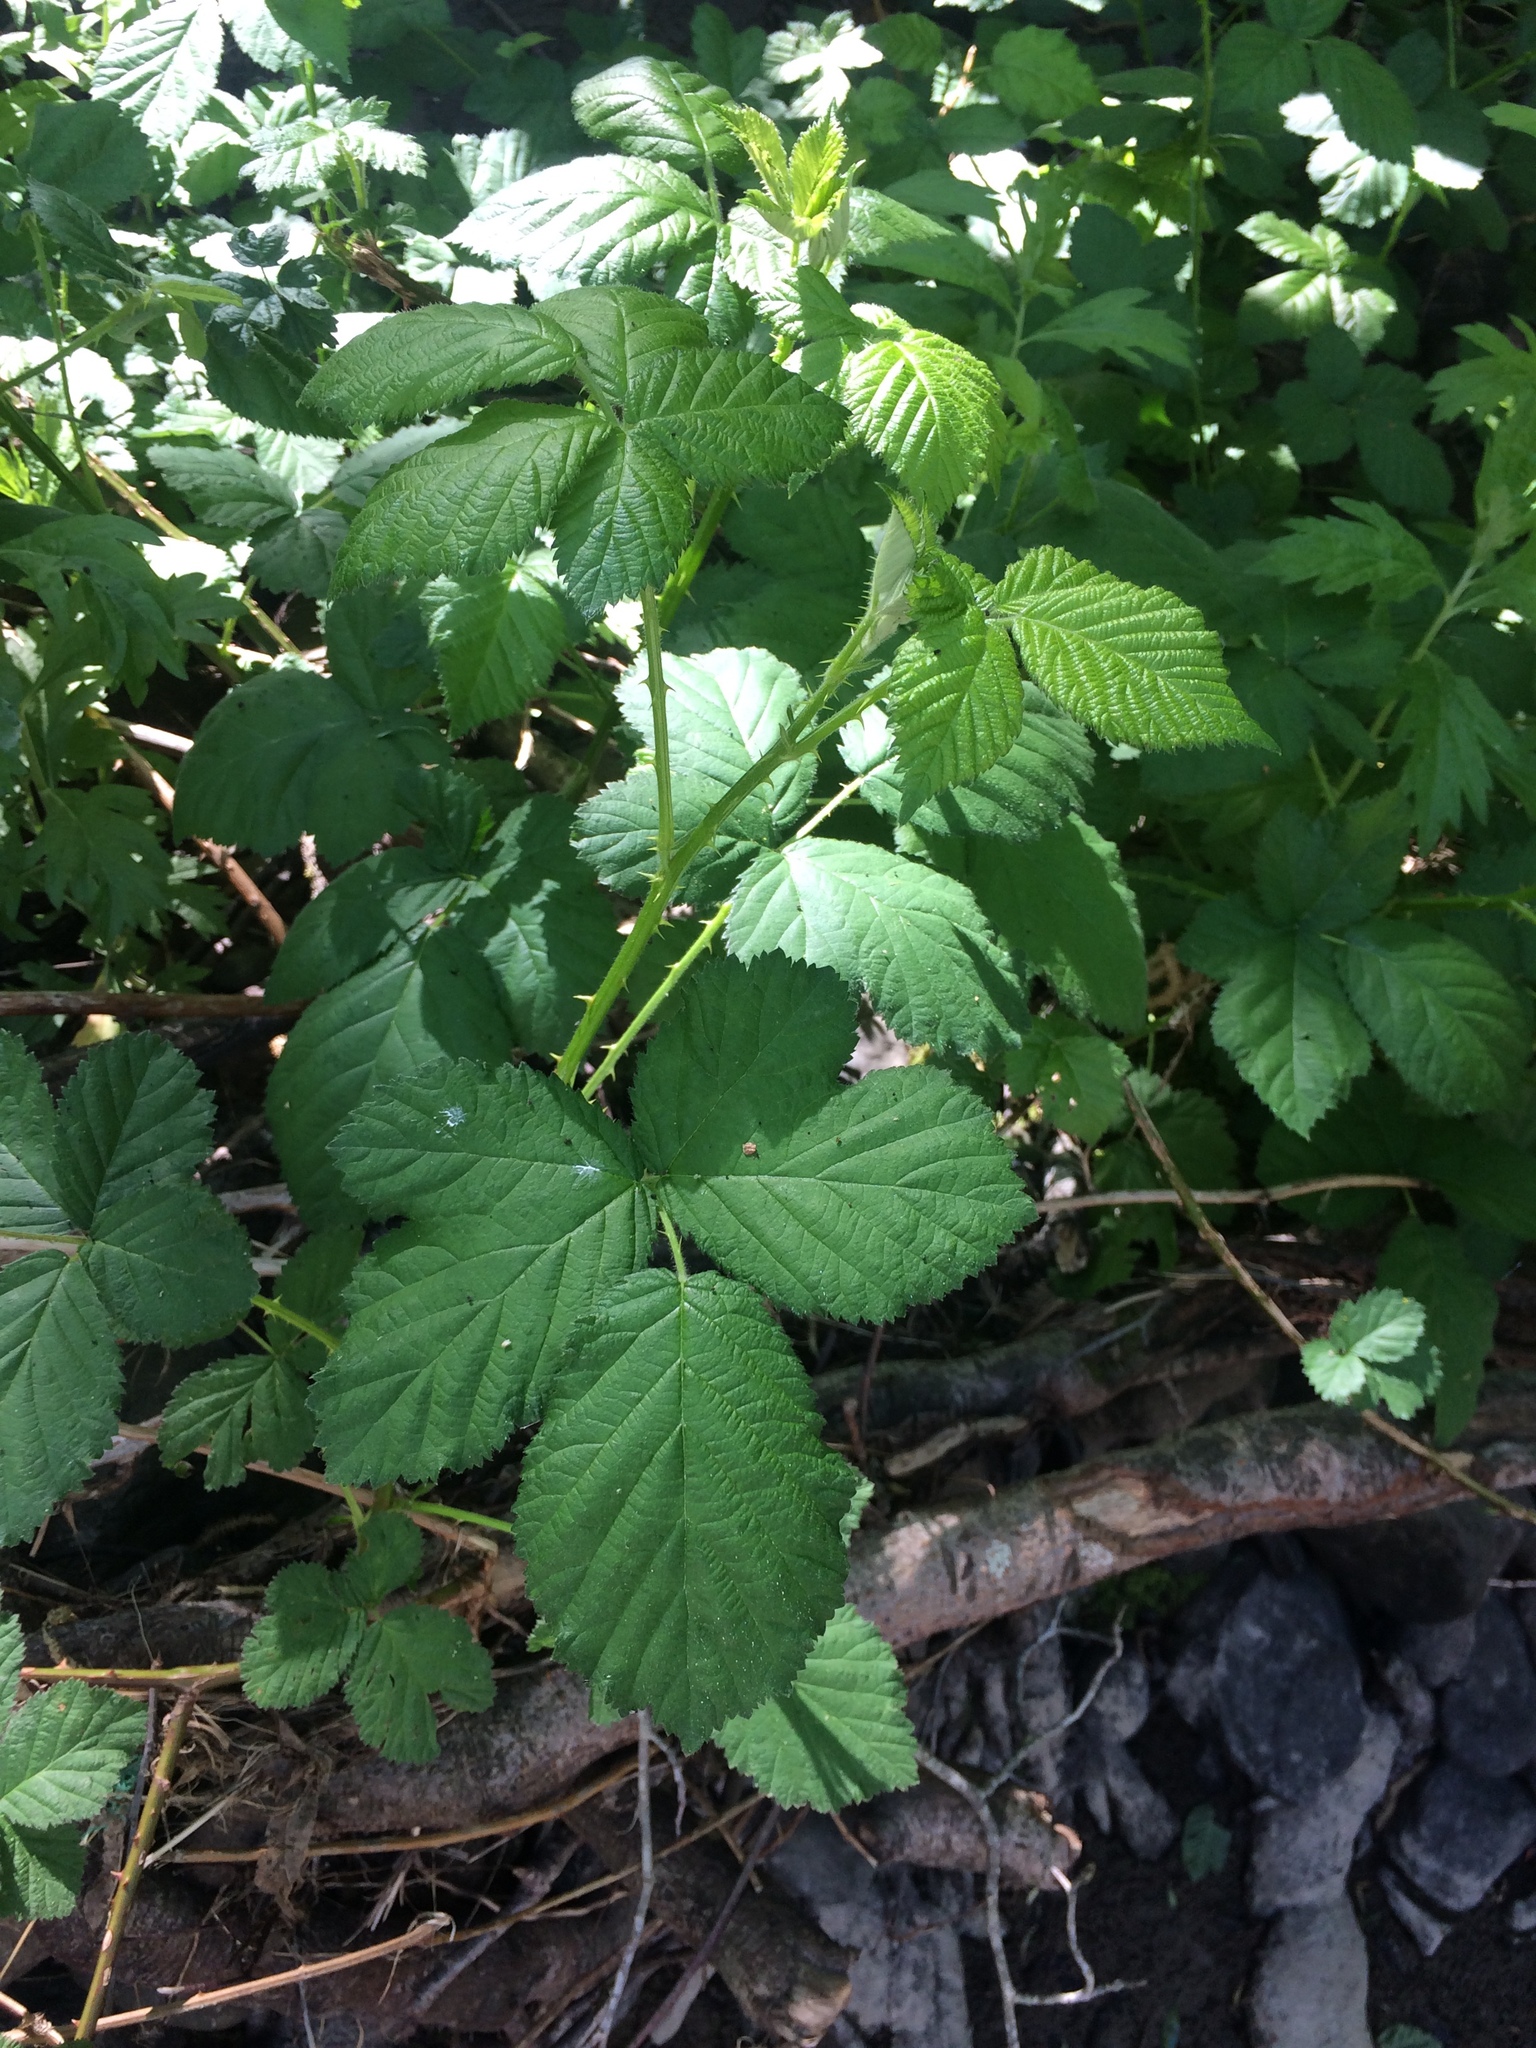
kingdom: Plantae
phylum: Tracheophyta
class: Magnoliopsida
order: Rosales
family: Rosaceae
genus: Rubus
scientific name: Rubus armeniacus
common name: Himalayan blackberry
